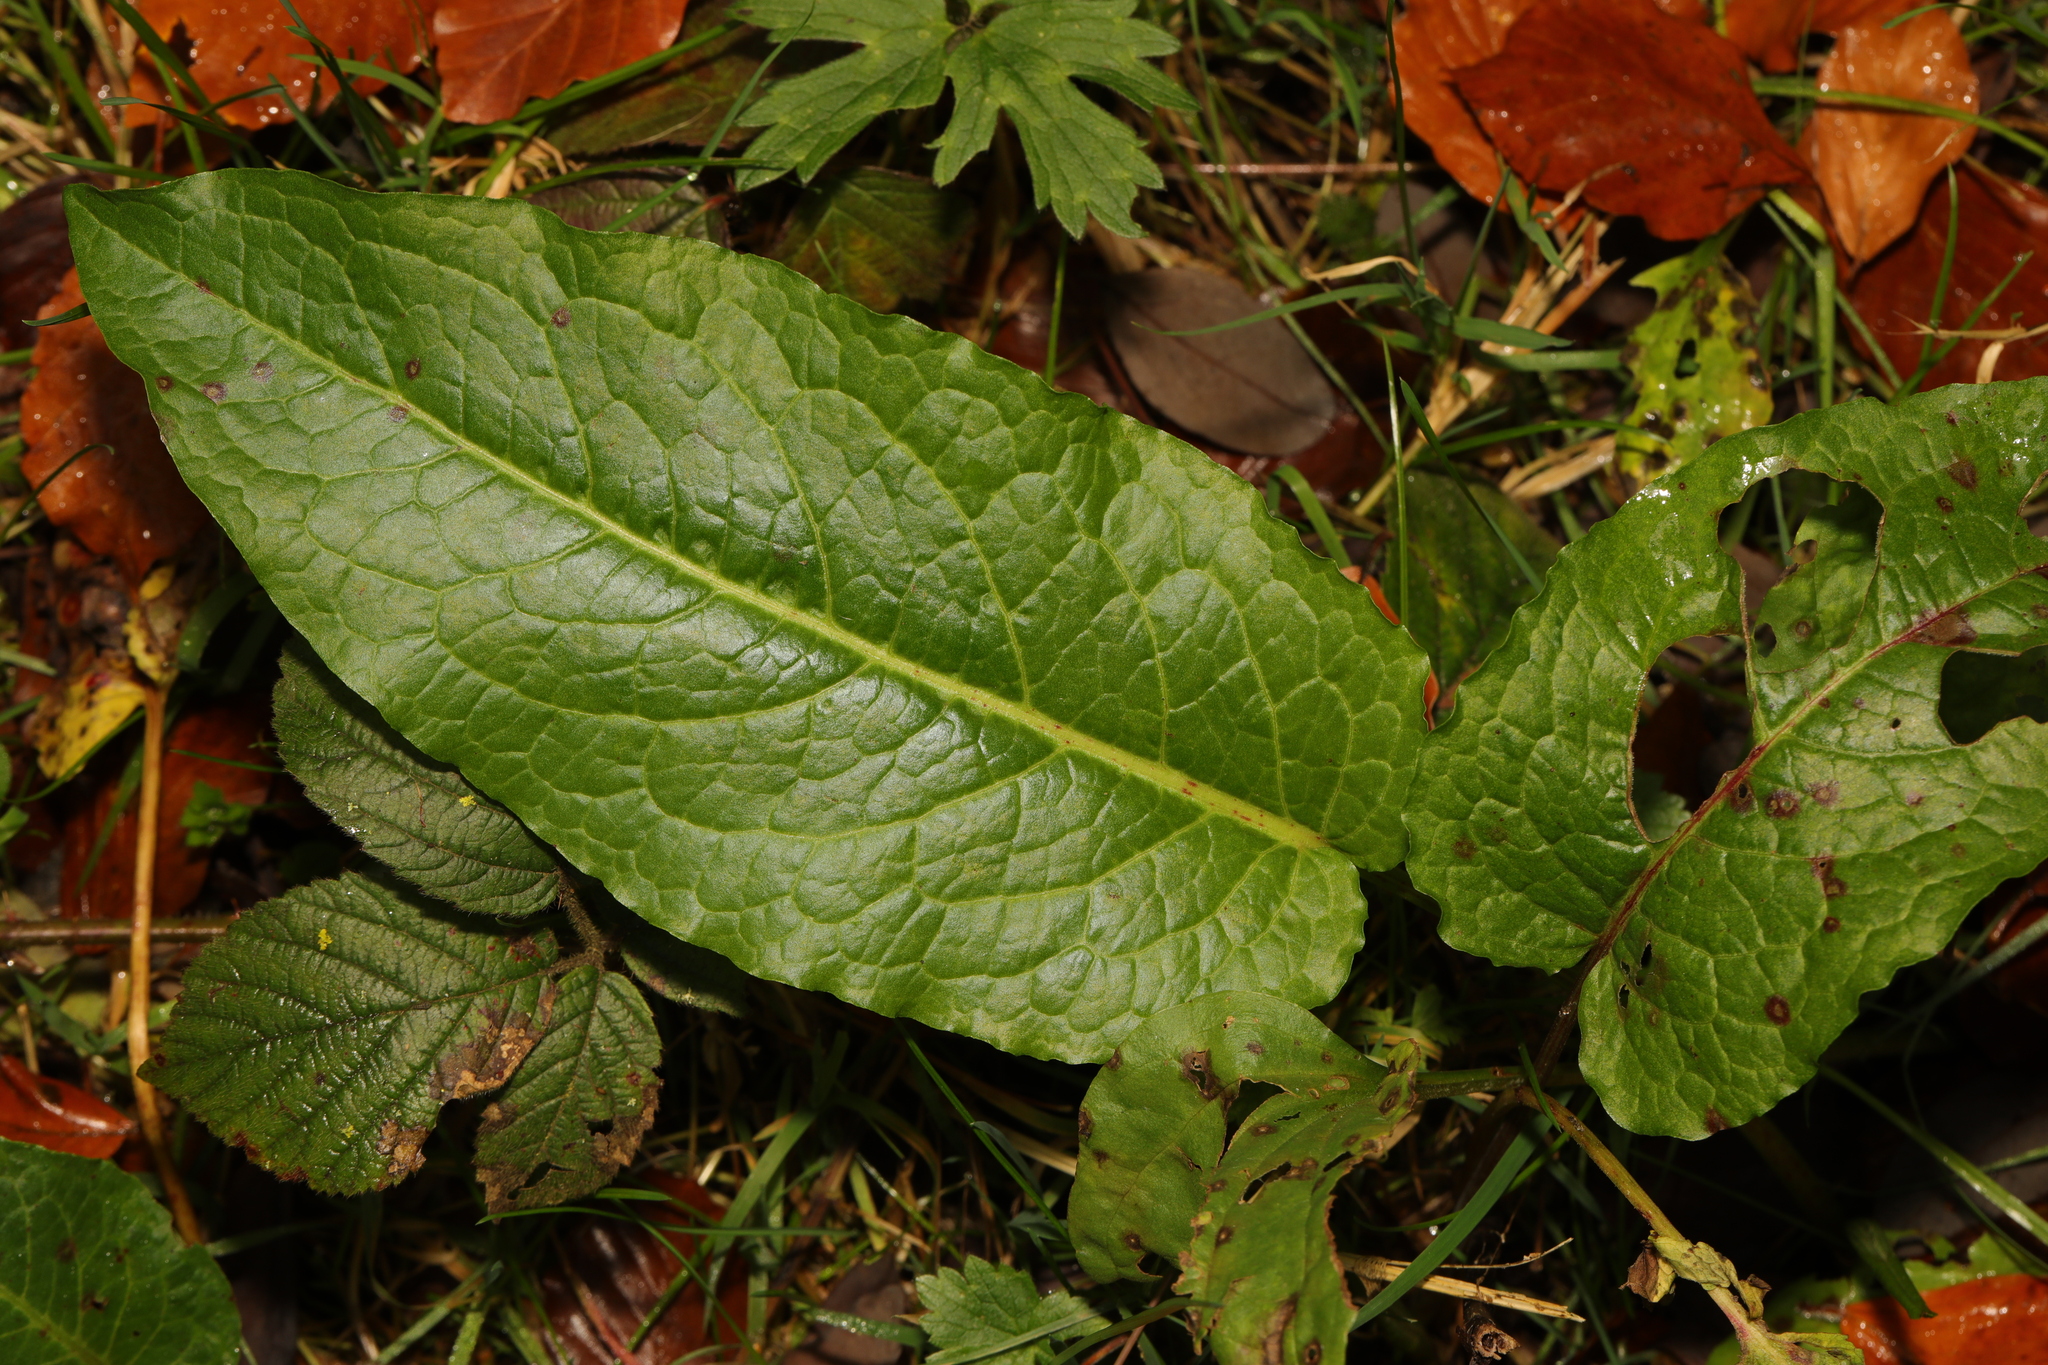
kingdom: Plantae
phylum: Tracheophyta
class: Magnoliopsida
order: Caryophyllales
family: Polygonaceae
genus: Rumex
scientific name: Rumex obtusifolius
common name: Bitter dock
